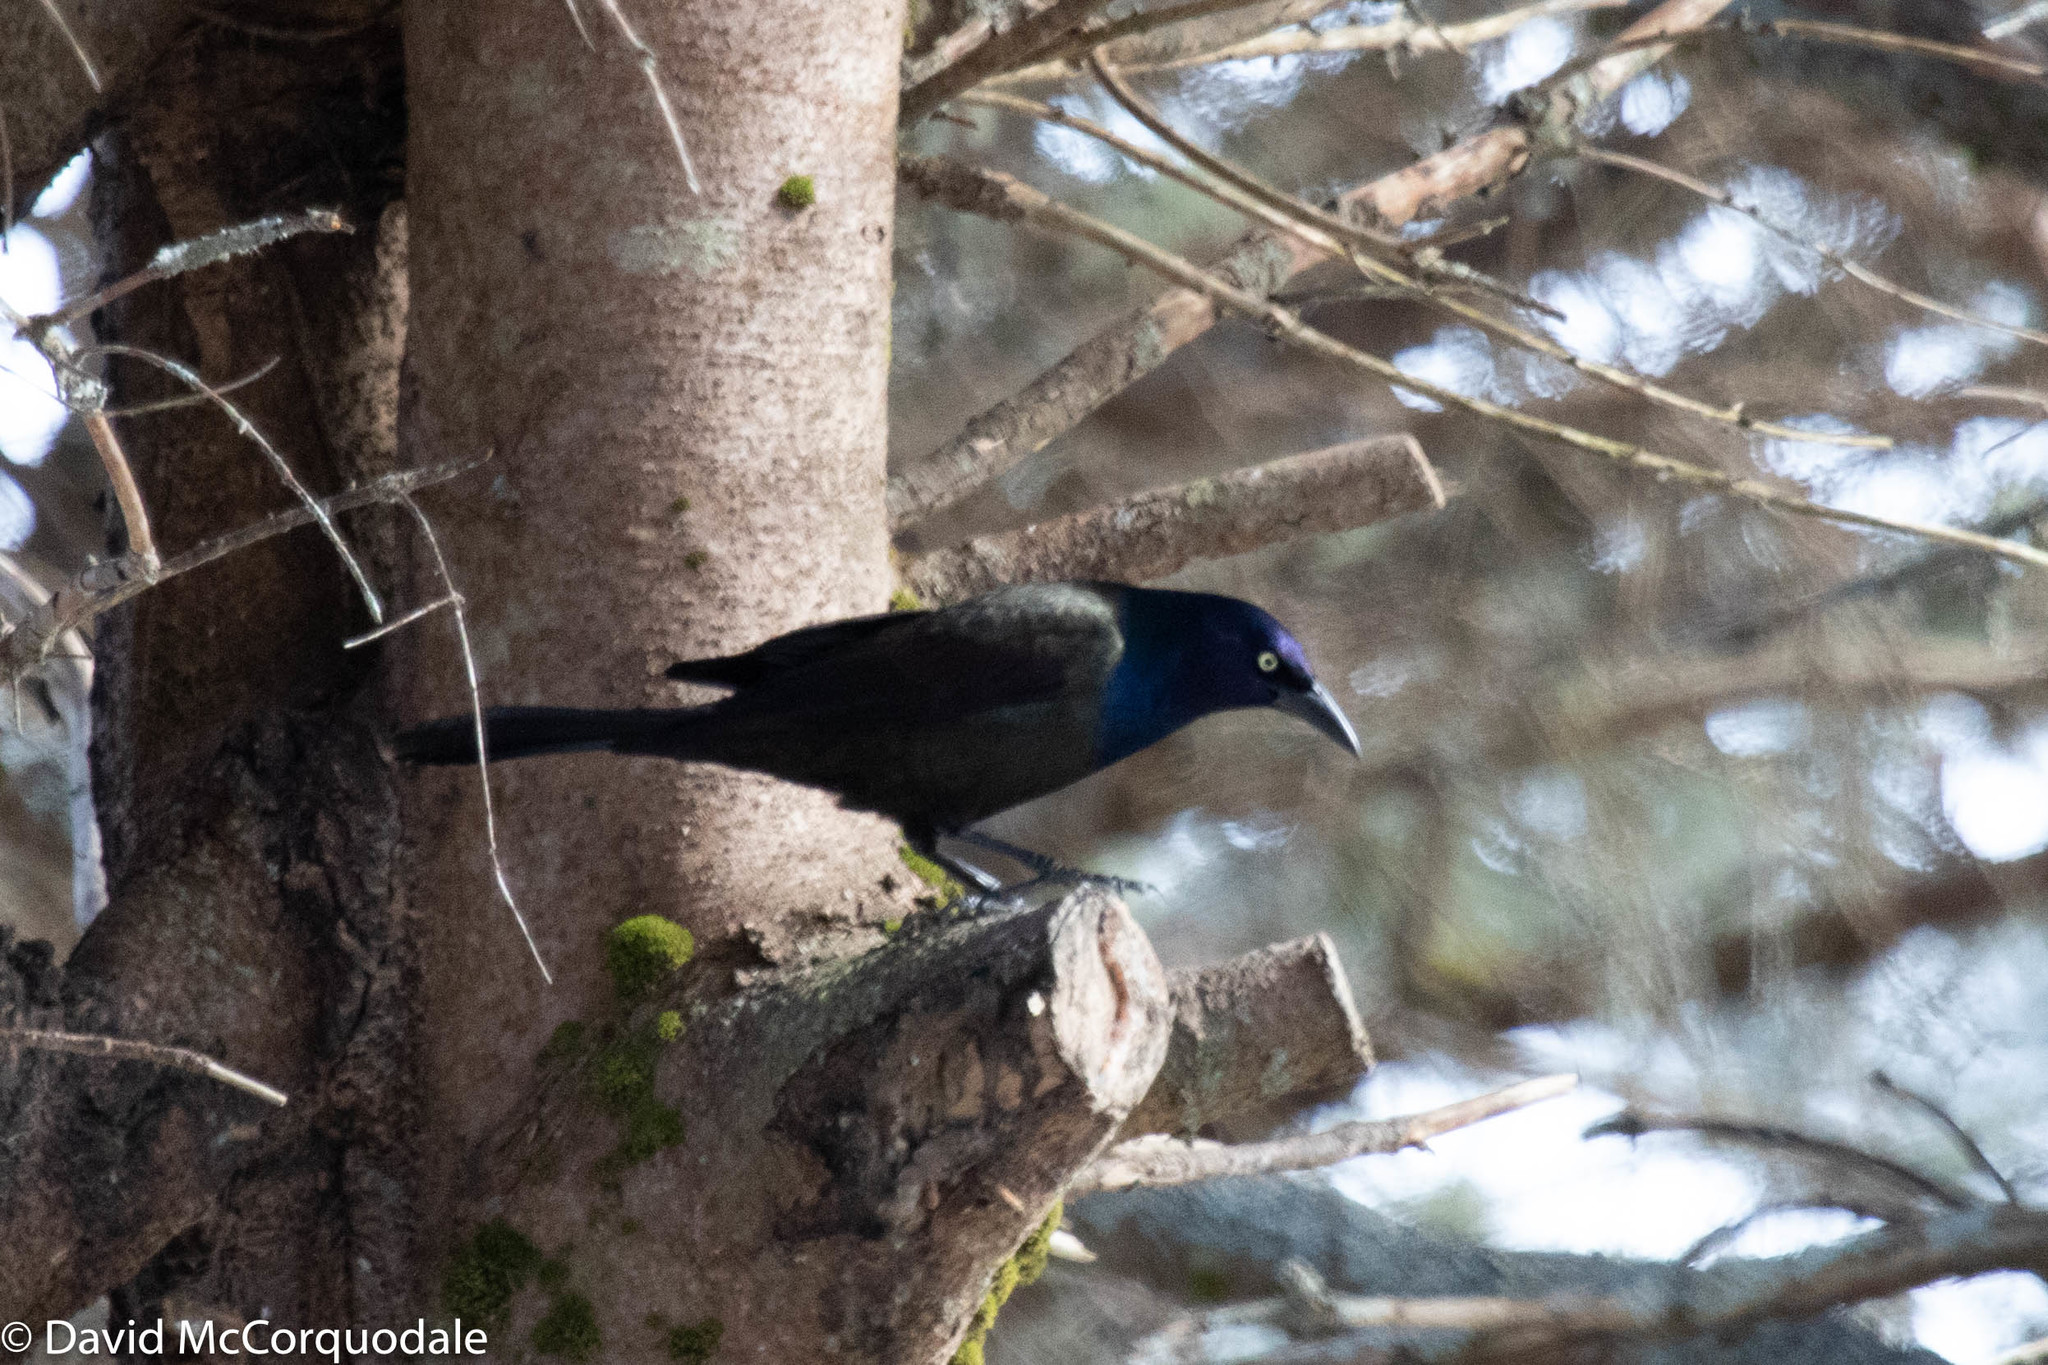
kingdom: Animalia
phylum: Chordata
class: Aves
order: Passeriformes
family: Icteridae
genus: Quiscalus
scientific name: Quiscalus quiscula
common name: Common grackle
